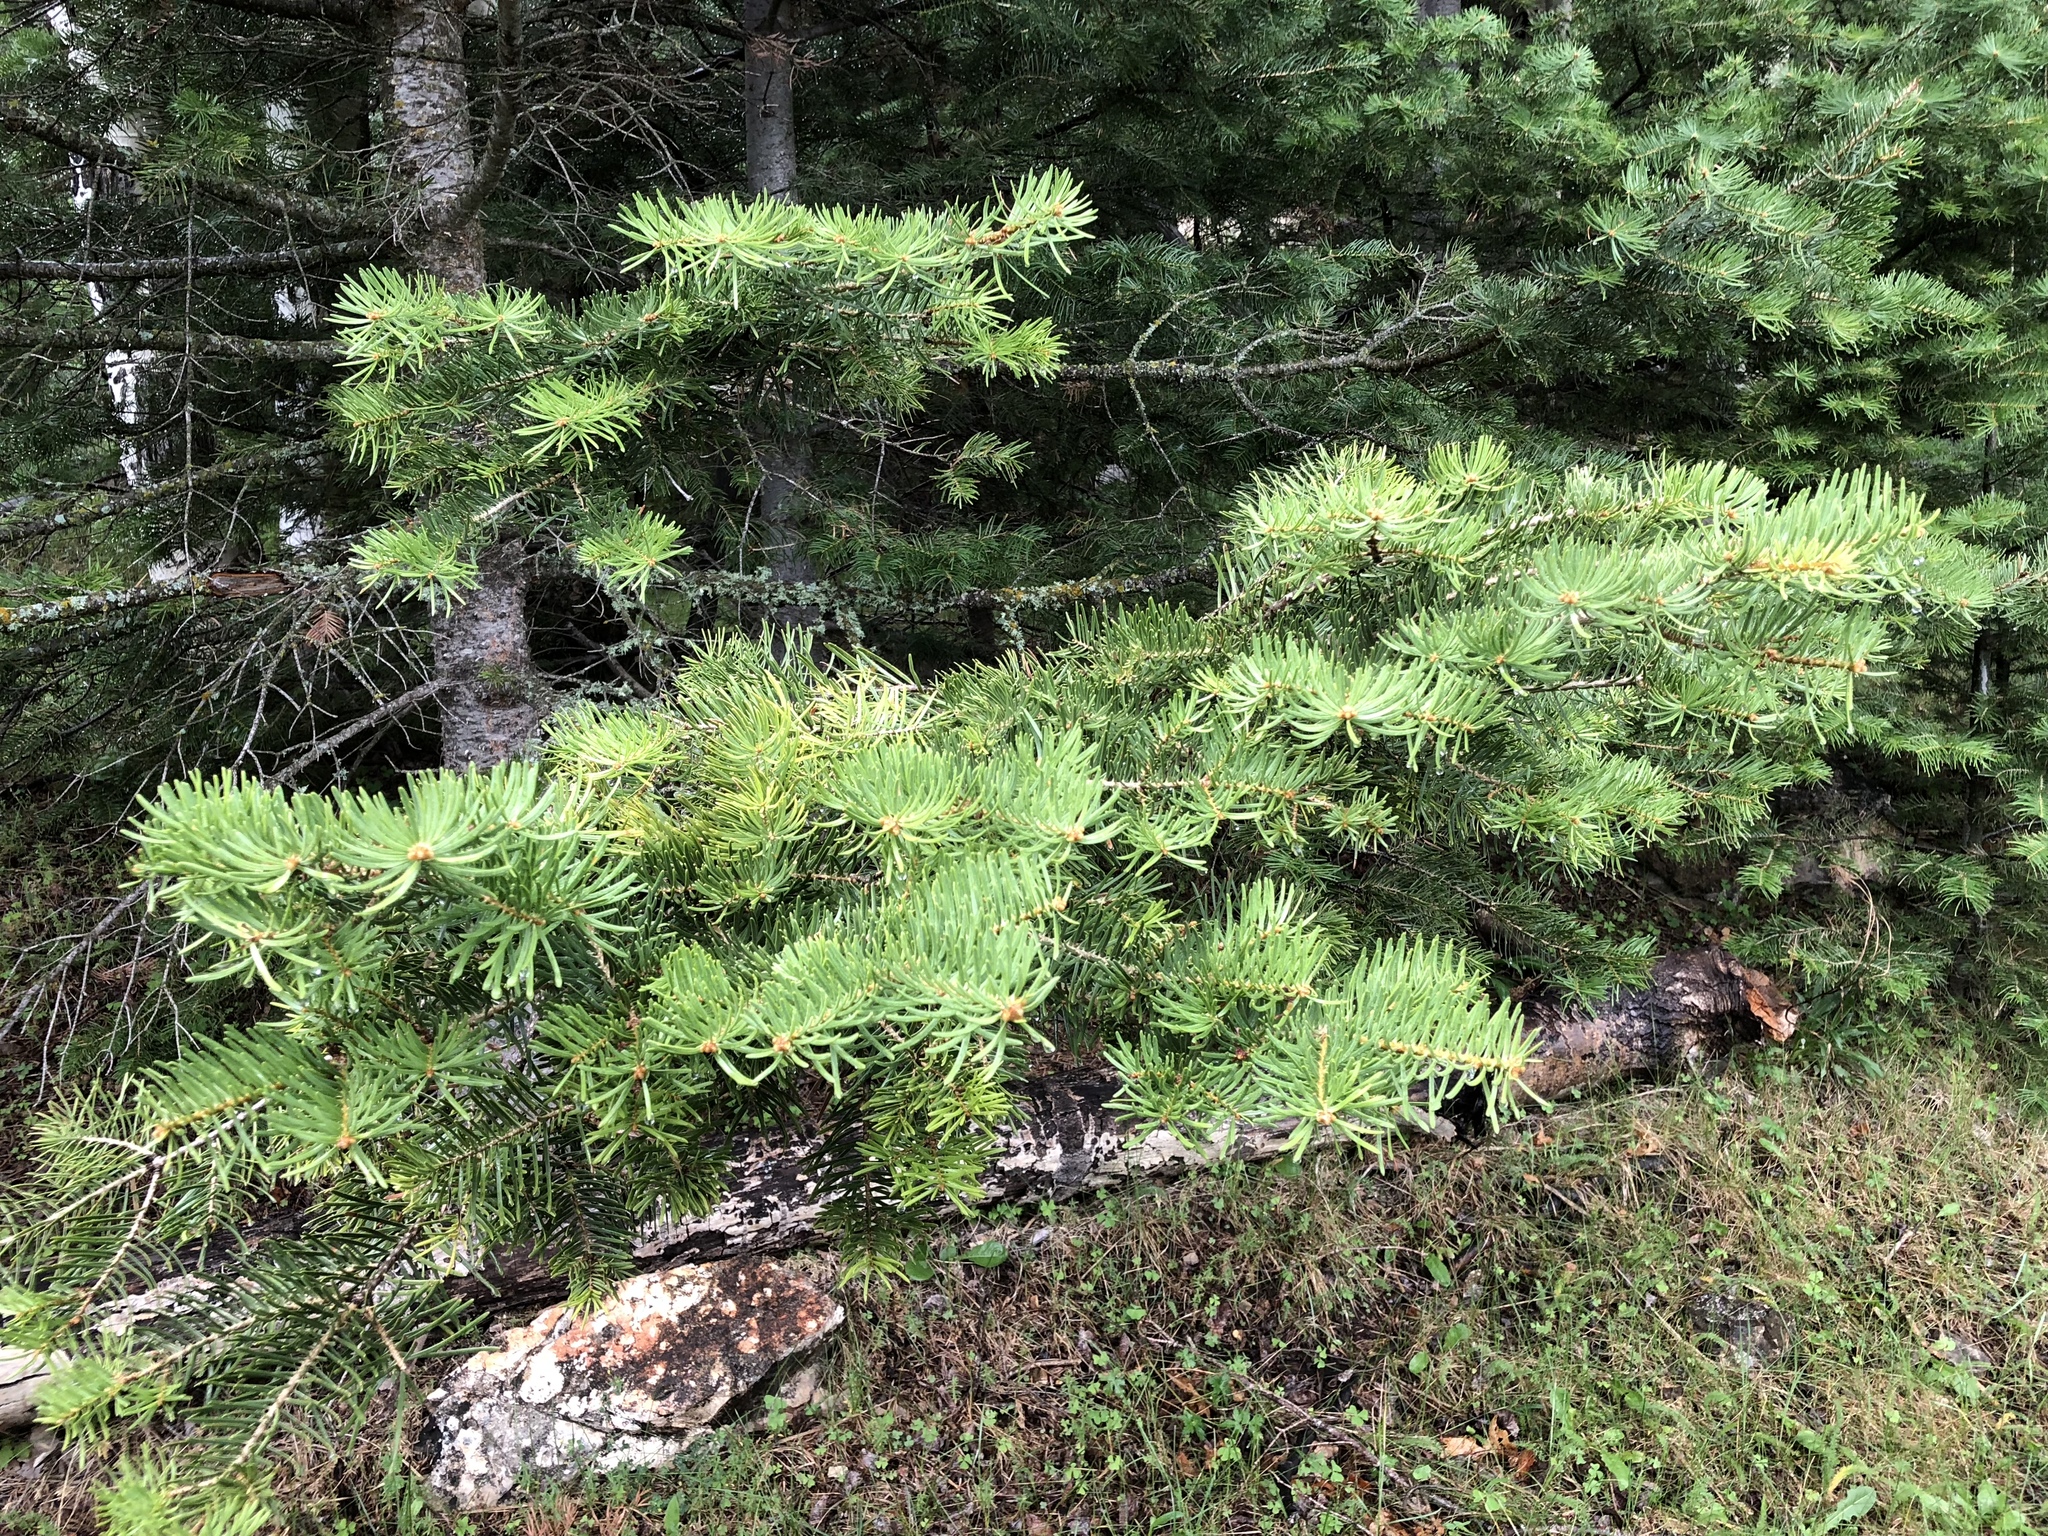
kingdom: Plantae
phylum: Tracheophyta
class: Pinopsida
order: Pinales
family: Pinaceae
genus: Abies
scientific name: Abies concolor
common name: Colorado fir
